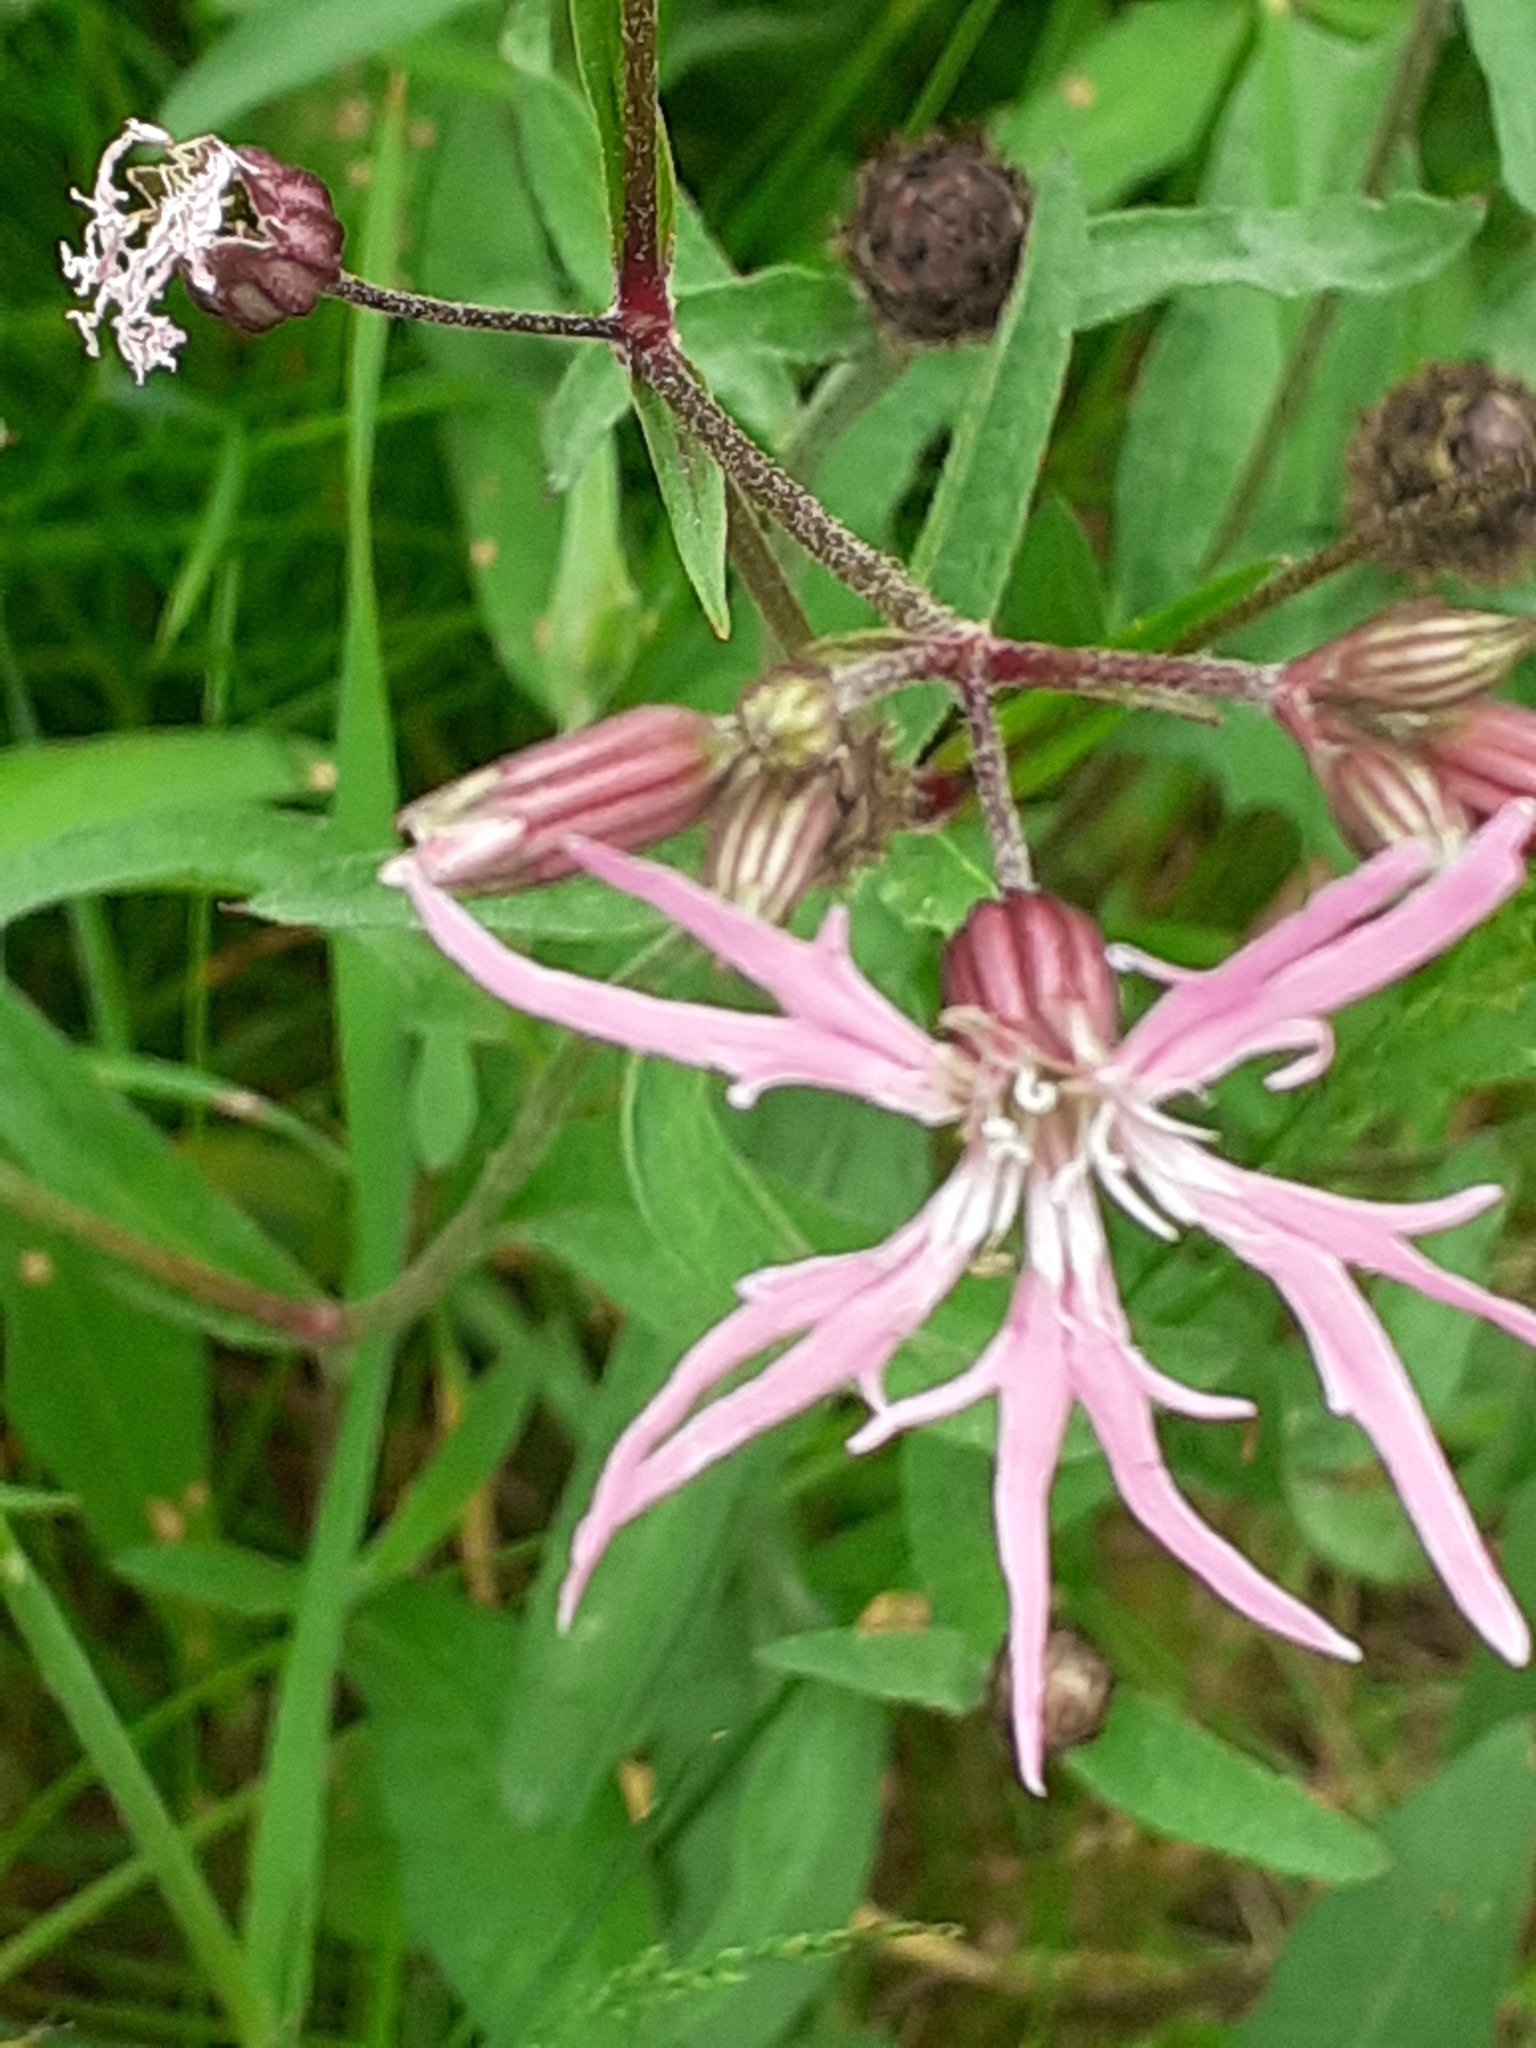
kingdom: Plantae
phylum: Tracheophyta
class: Magnoliopsida
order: Caryophyllales
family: Caryophyllaceae
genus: Silene
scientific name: Silene flos-cuculi
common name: Ragged-robin
